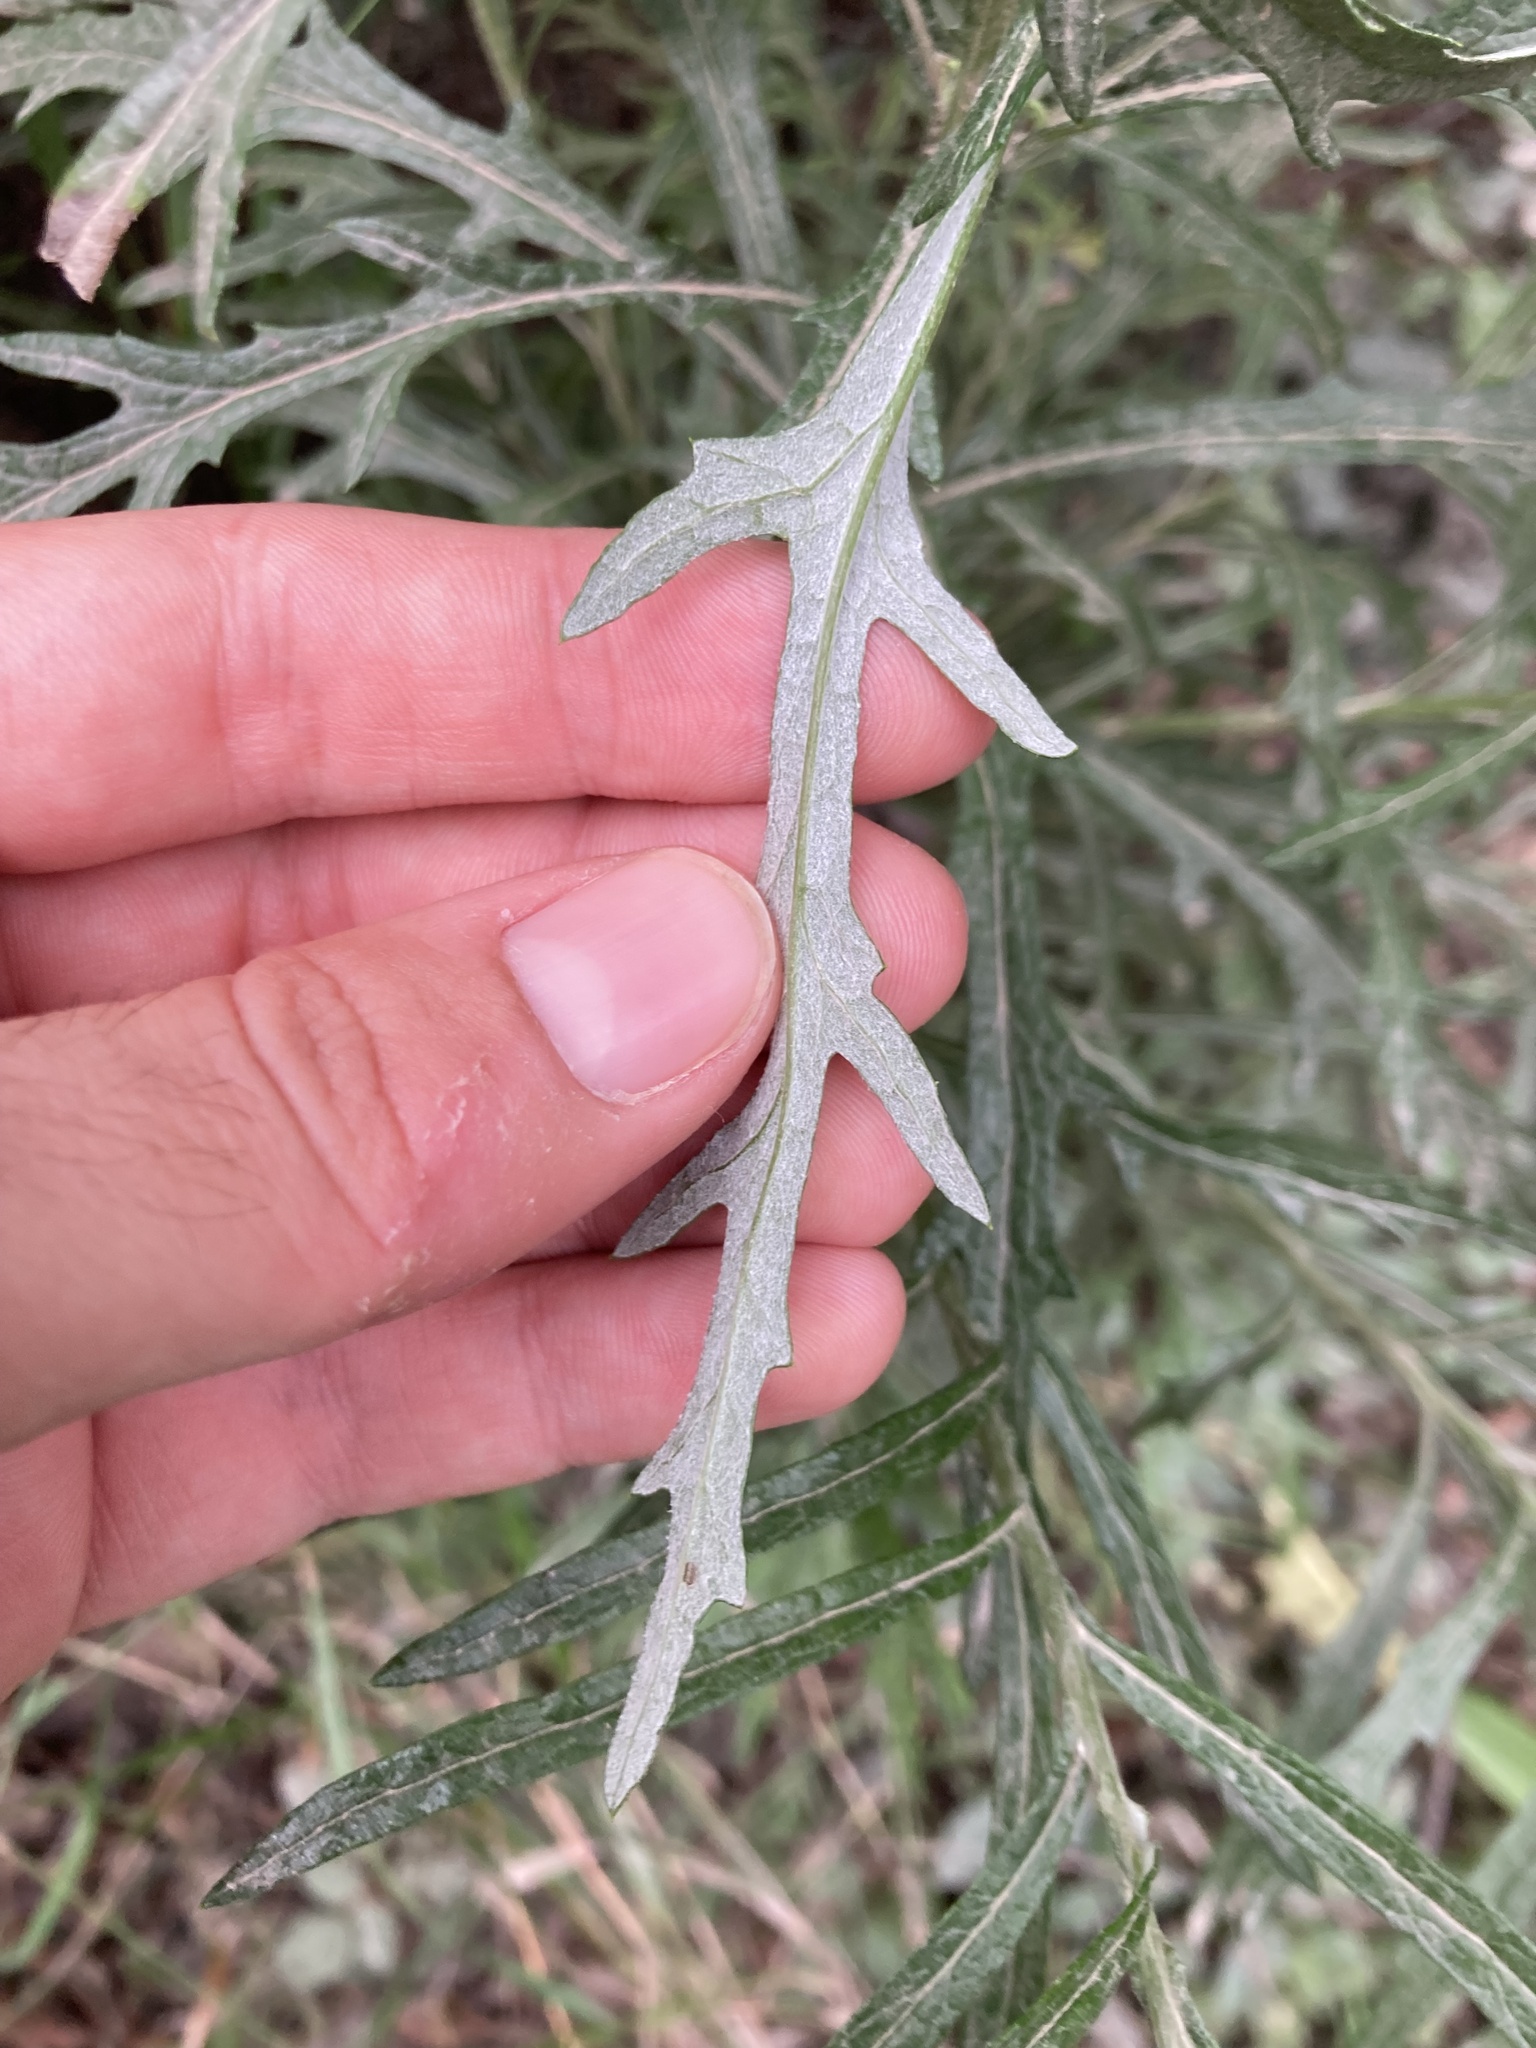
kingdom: Plantae
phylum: Tracheophyta
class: Magnoliopsida
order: Asterales
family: Asteraceae
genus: Senecio
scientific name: Senecio pterophorus
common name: Shoddy ragwort
